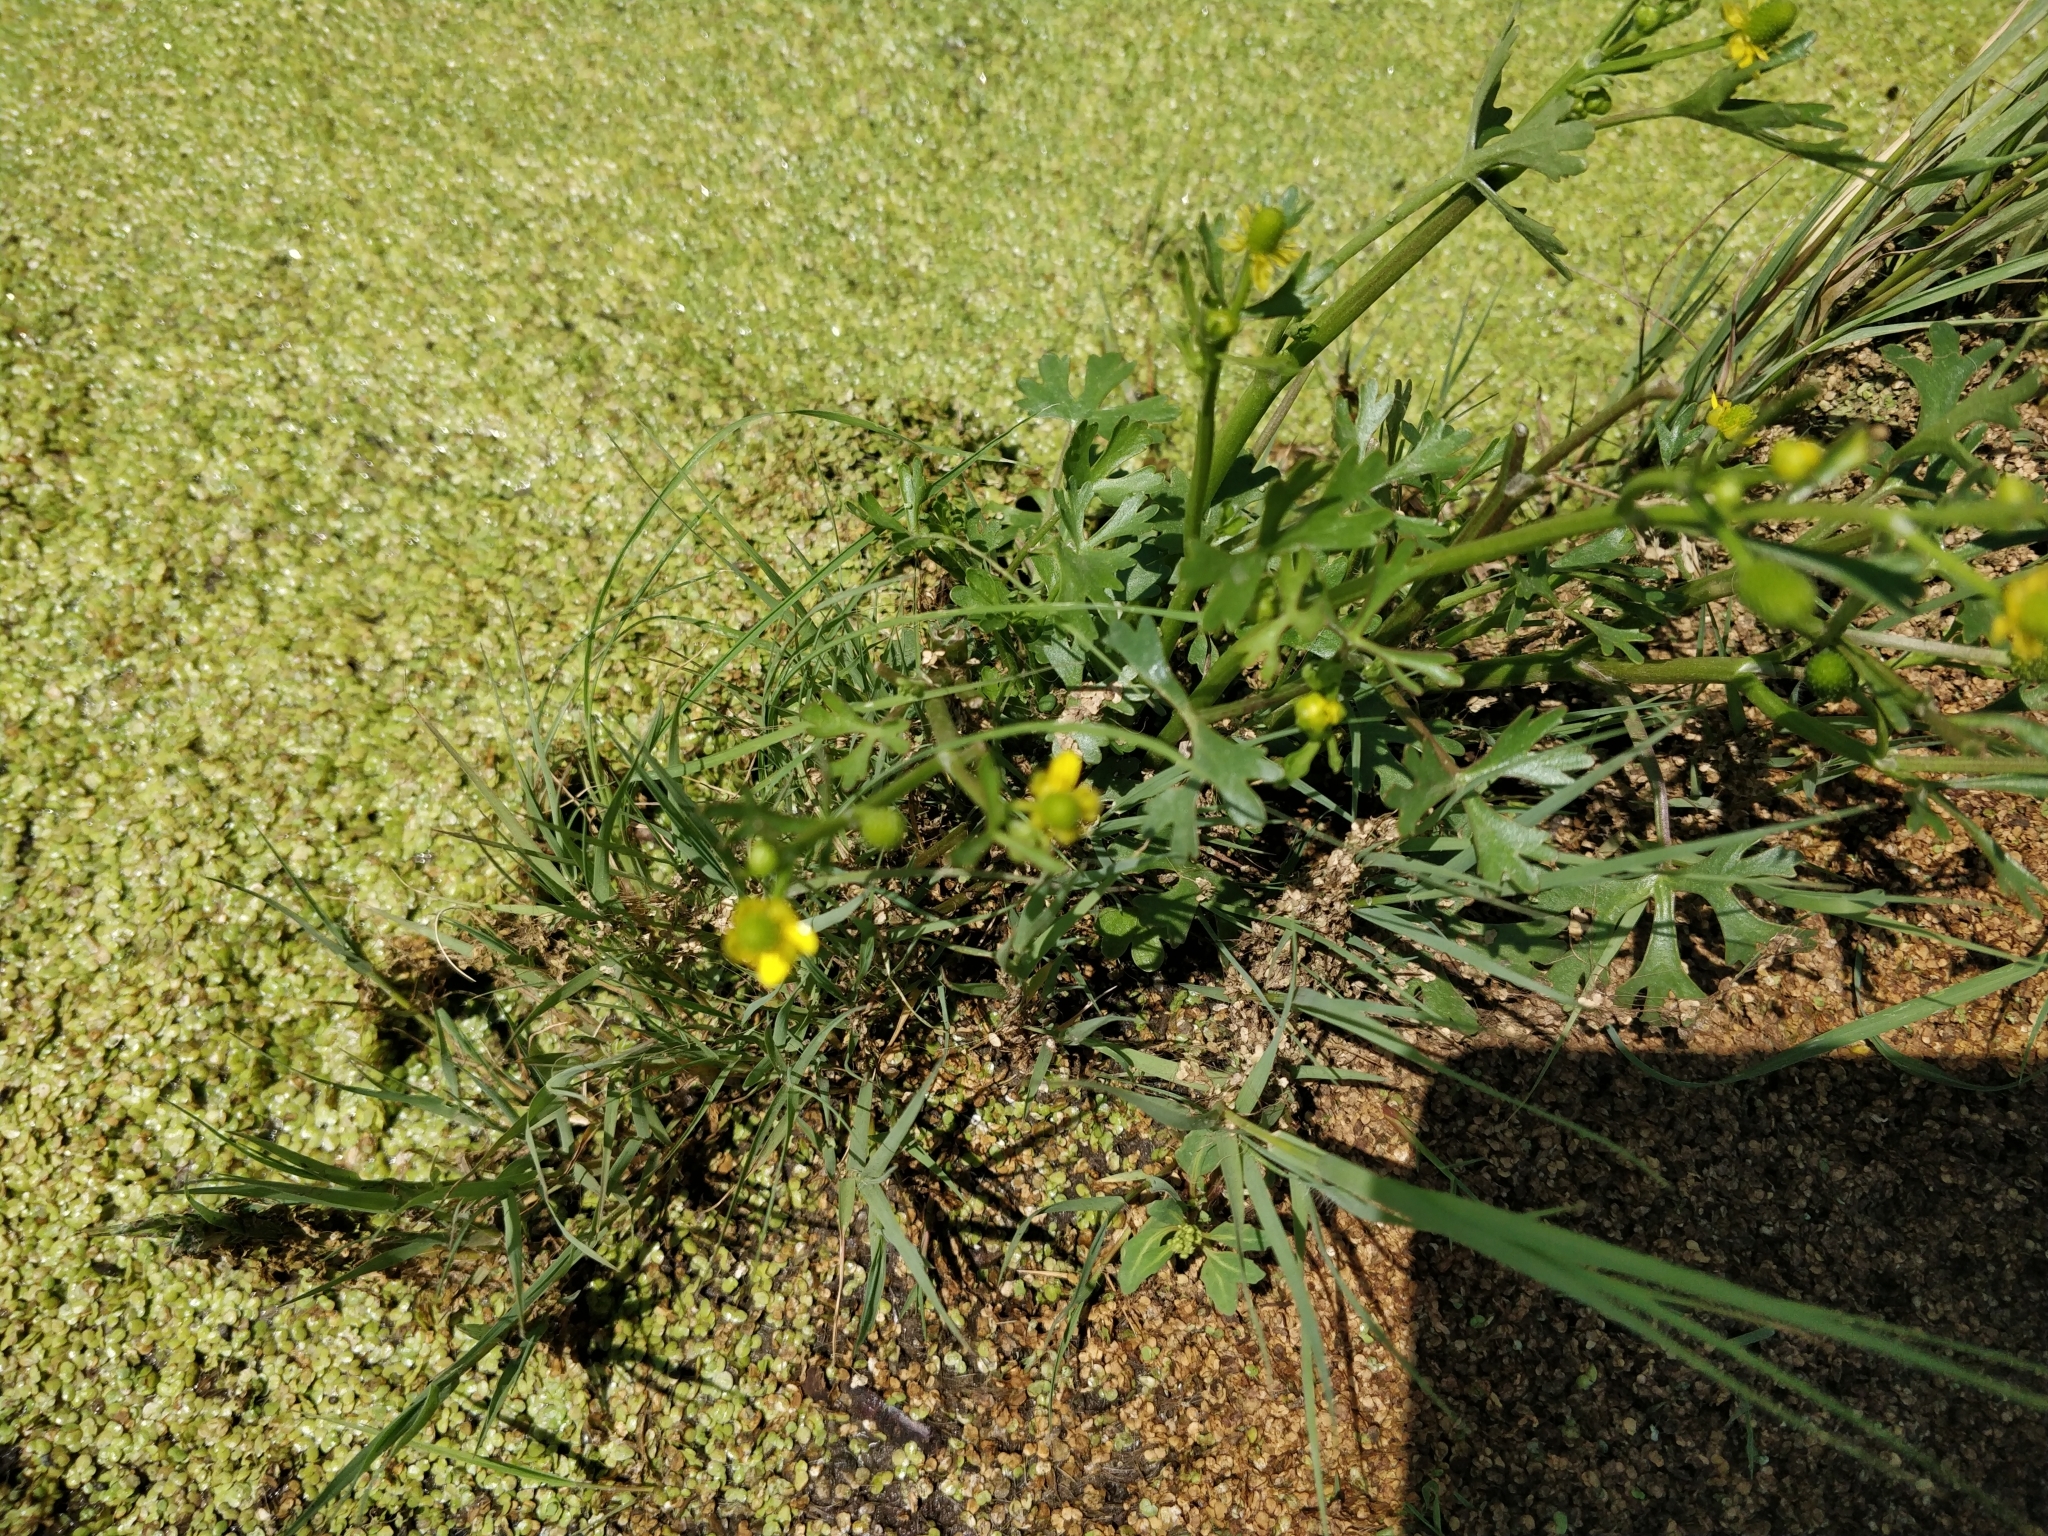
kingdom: Plantae
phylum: Tracheophyta
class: Magnoliopsida
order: Ranunculales
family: Ranunculaceae
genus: Ranunculus
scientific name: Ranunculus sceleratus
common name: Celery-leaved buttercup
